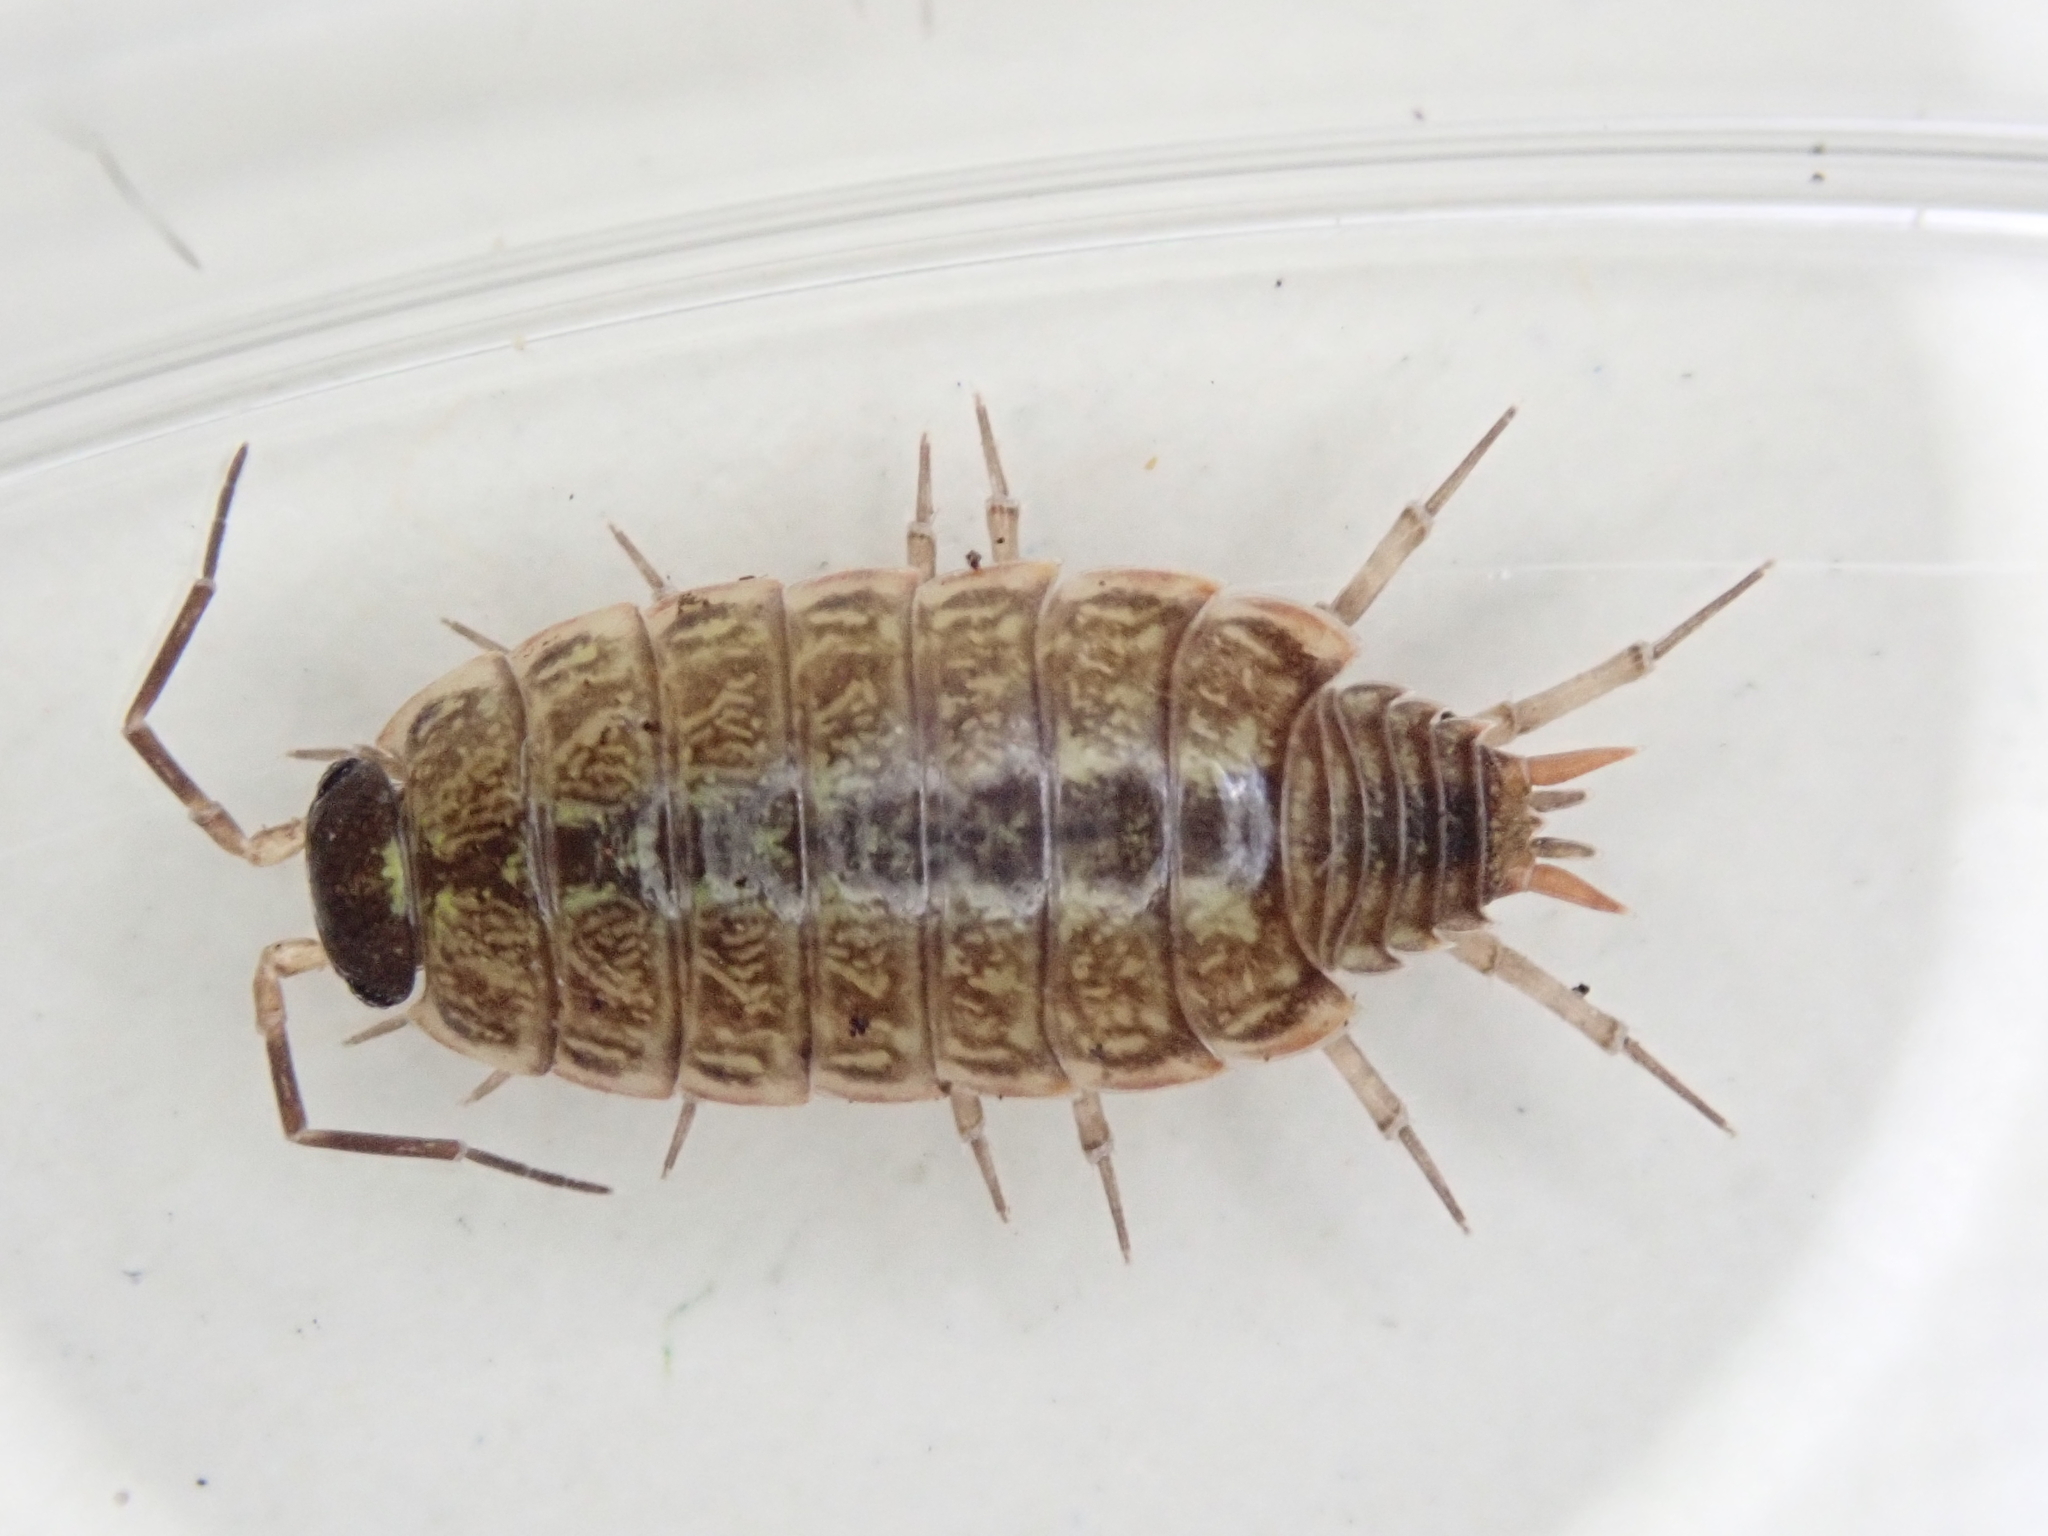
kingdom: Animalia
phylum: Arthropoda
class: Malacostraca
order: Isopoda
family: Philosciidae
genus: Philoscia
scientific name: Philoscia muscorum
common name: Common striped woodlouse
